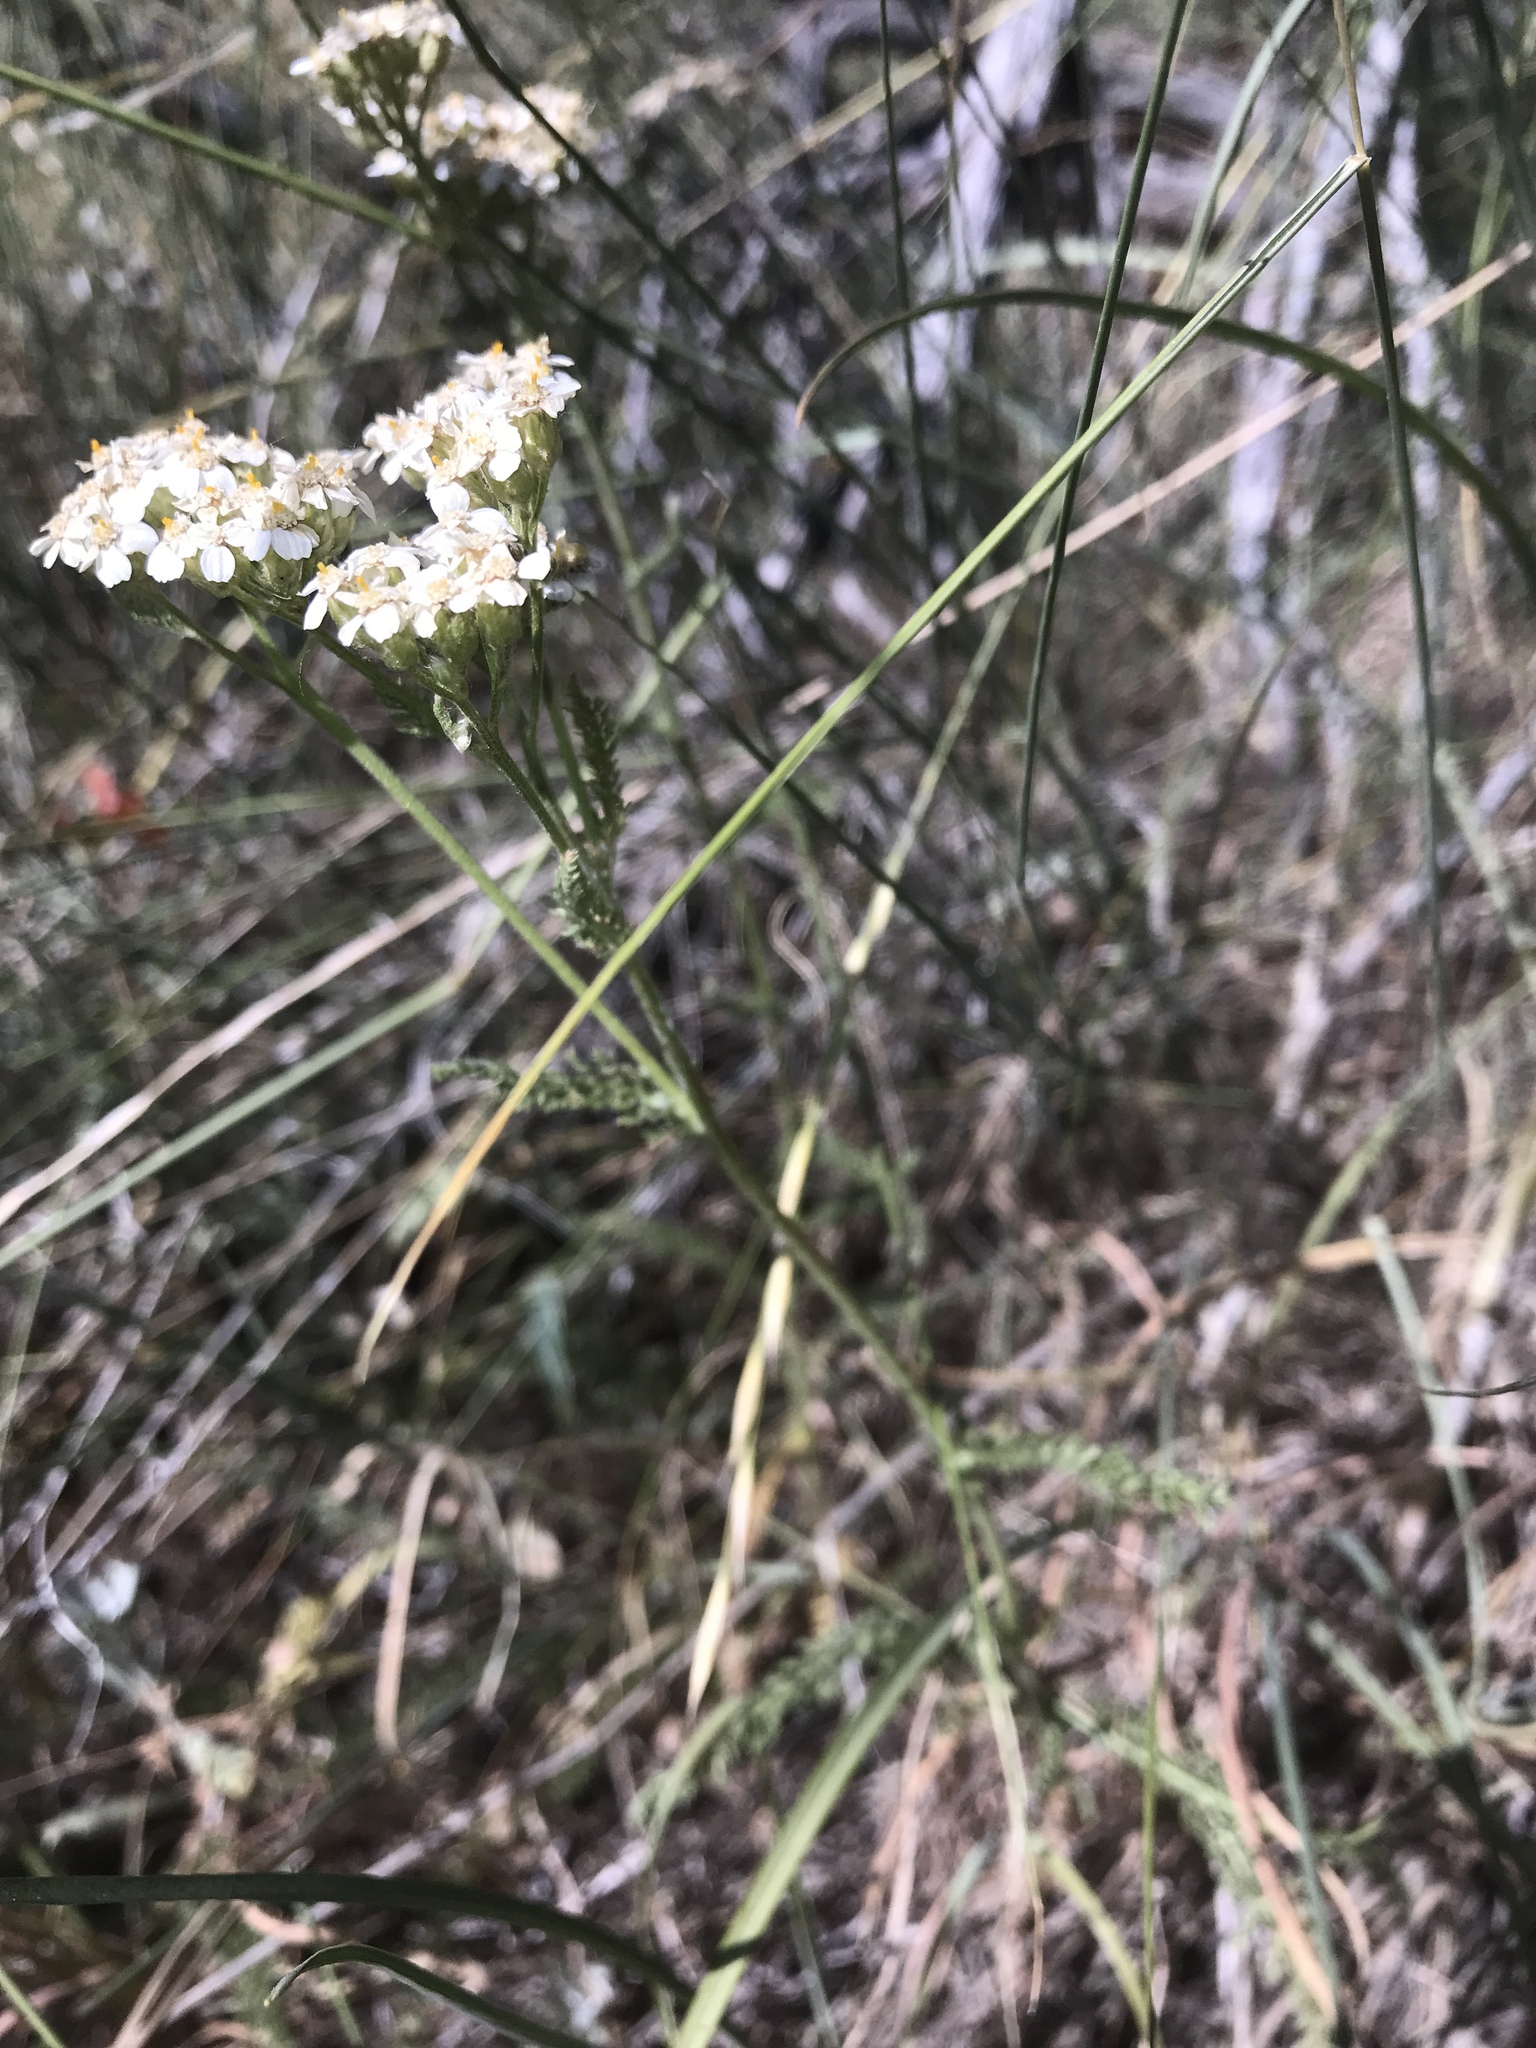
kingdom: Plantae
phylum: Tracheophyta
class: Magnoliopsida
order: Asterales
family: Asteraceae
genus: Achillea
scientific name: Achillea millefolium
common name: Yarrow
